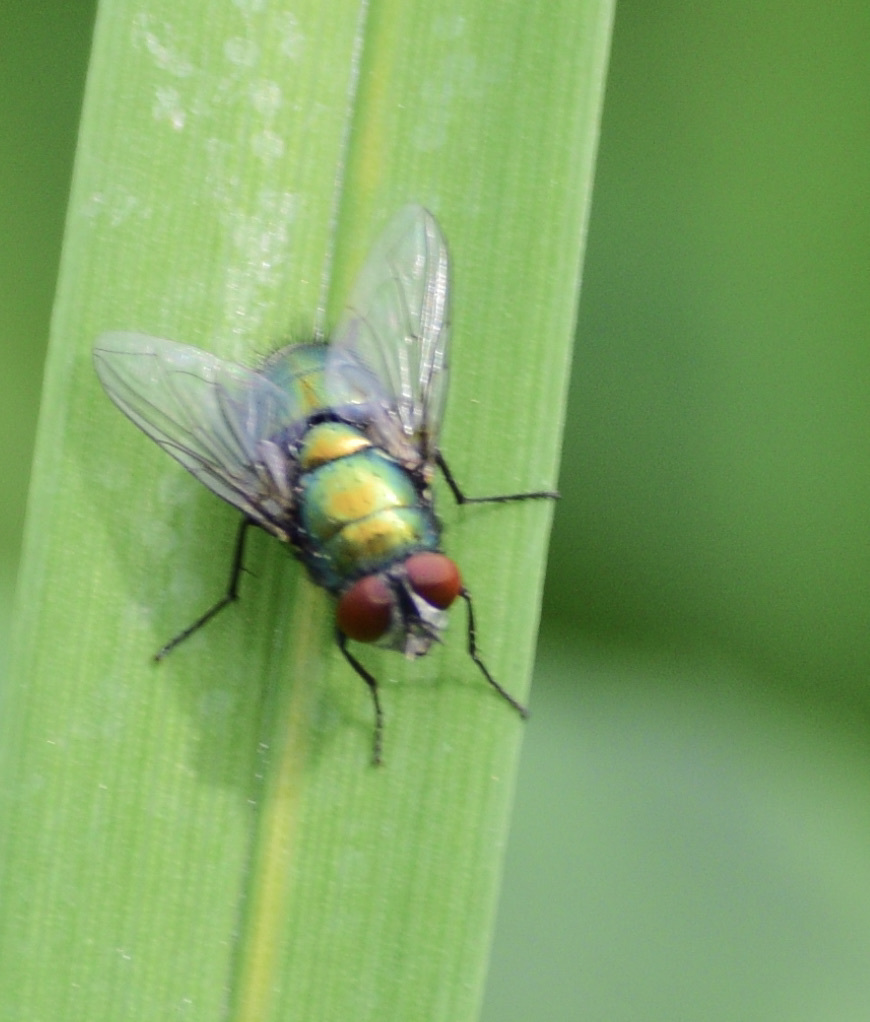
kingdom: Animalia
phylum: Arthropoda
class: Insecta
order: Diptera
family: Calliphoridae
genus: Lucilia
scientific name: Lucilia sericata
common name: Blow fly
